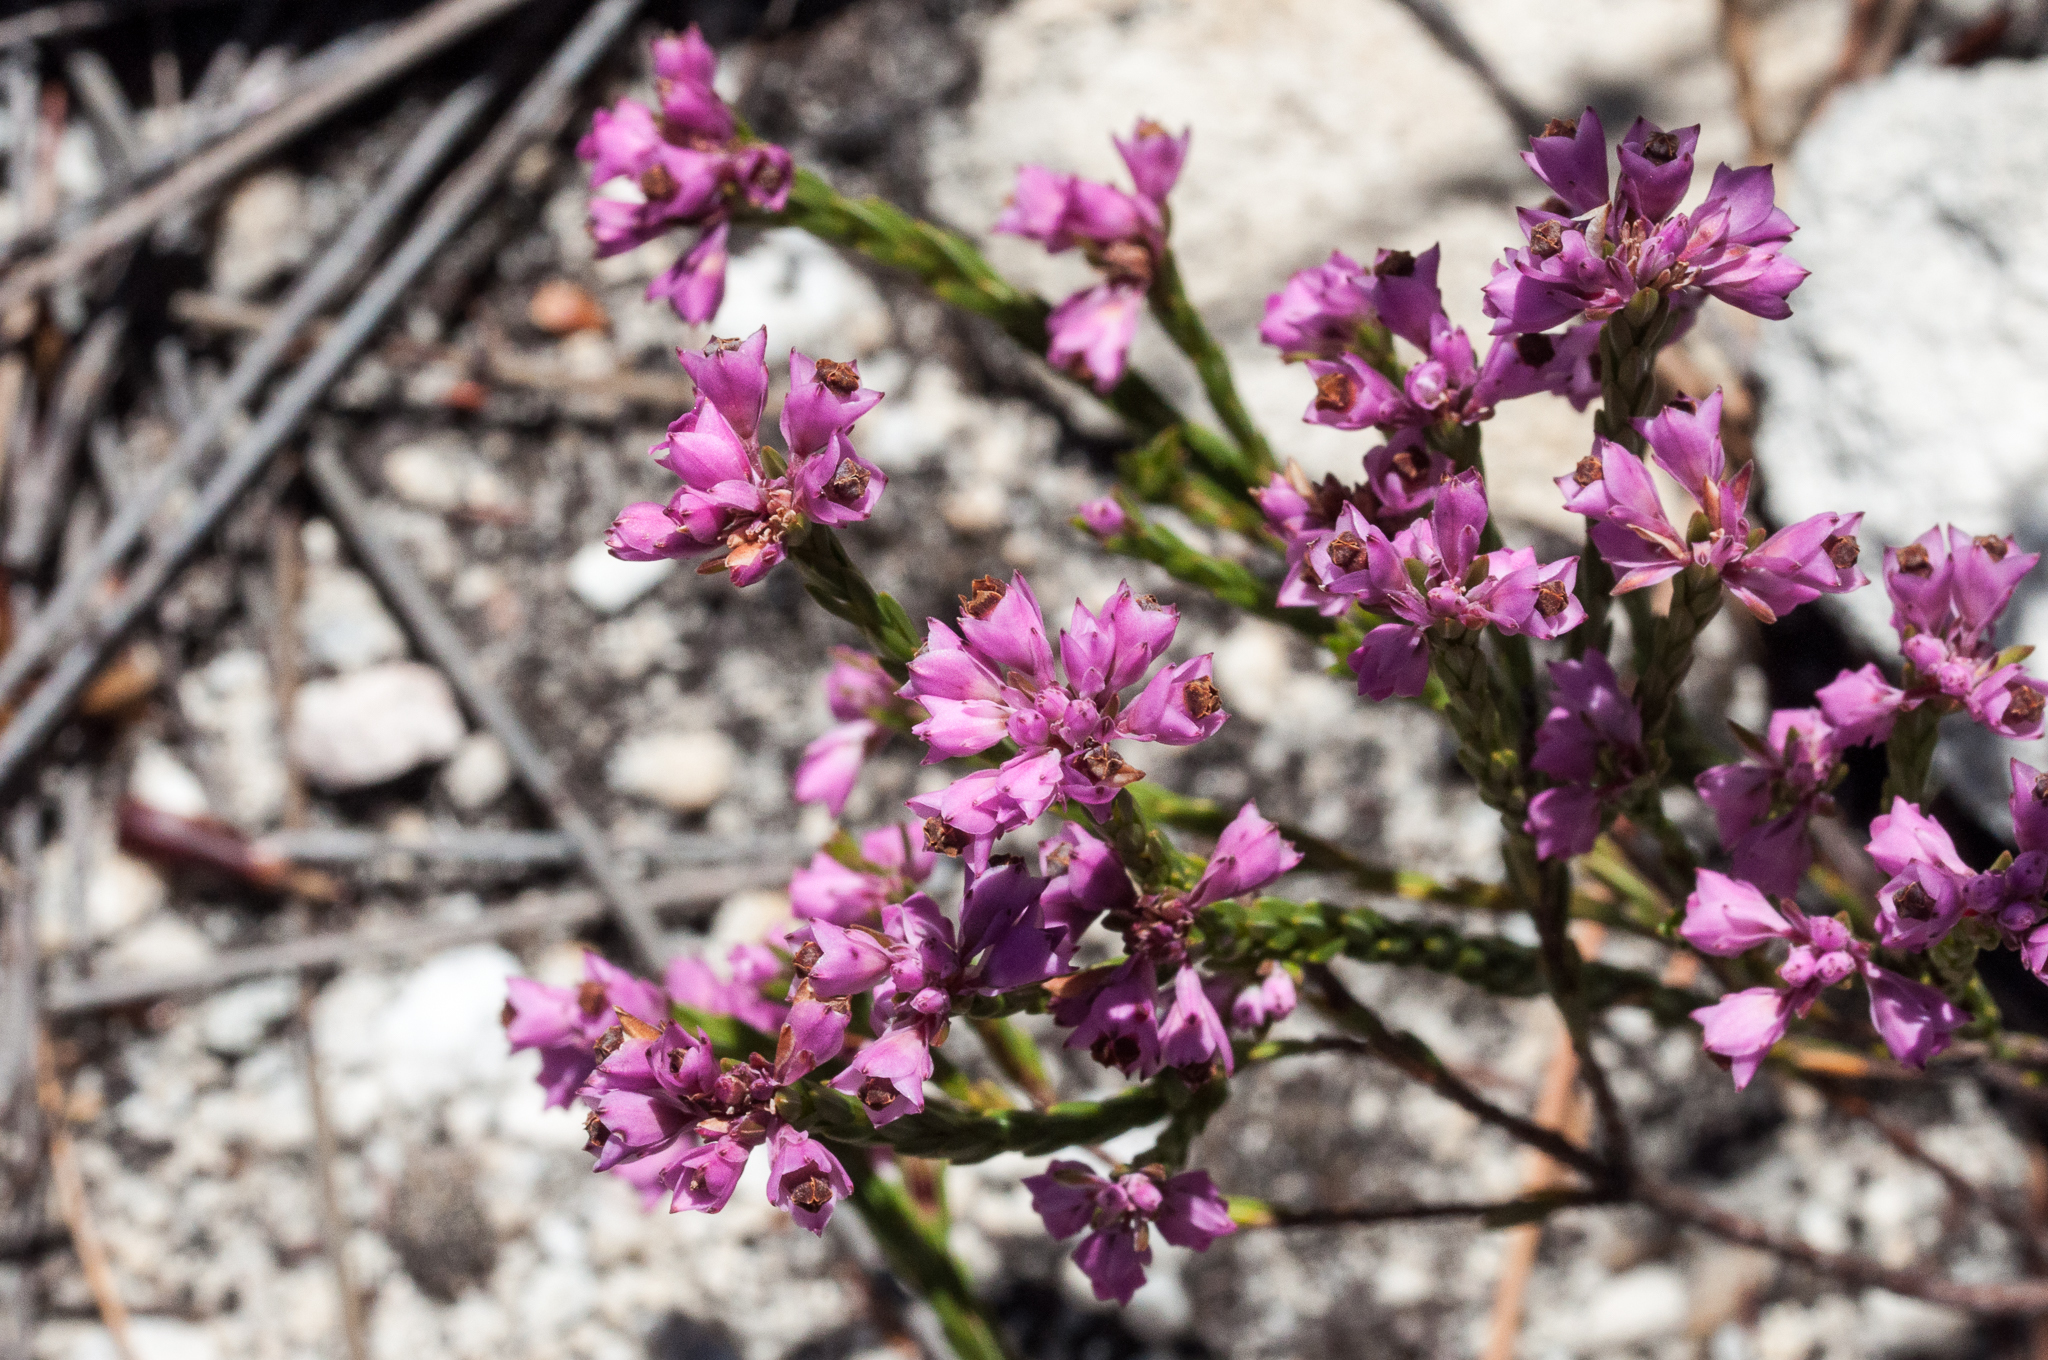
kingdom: Plantae
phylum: Tracheophyta
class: Magnoliopsida
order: Ericales
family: Ericaceae
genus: Erica
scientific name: Erica corifolia
